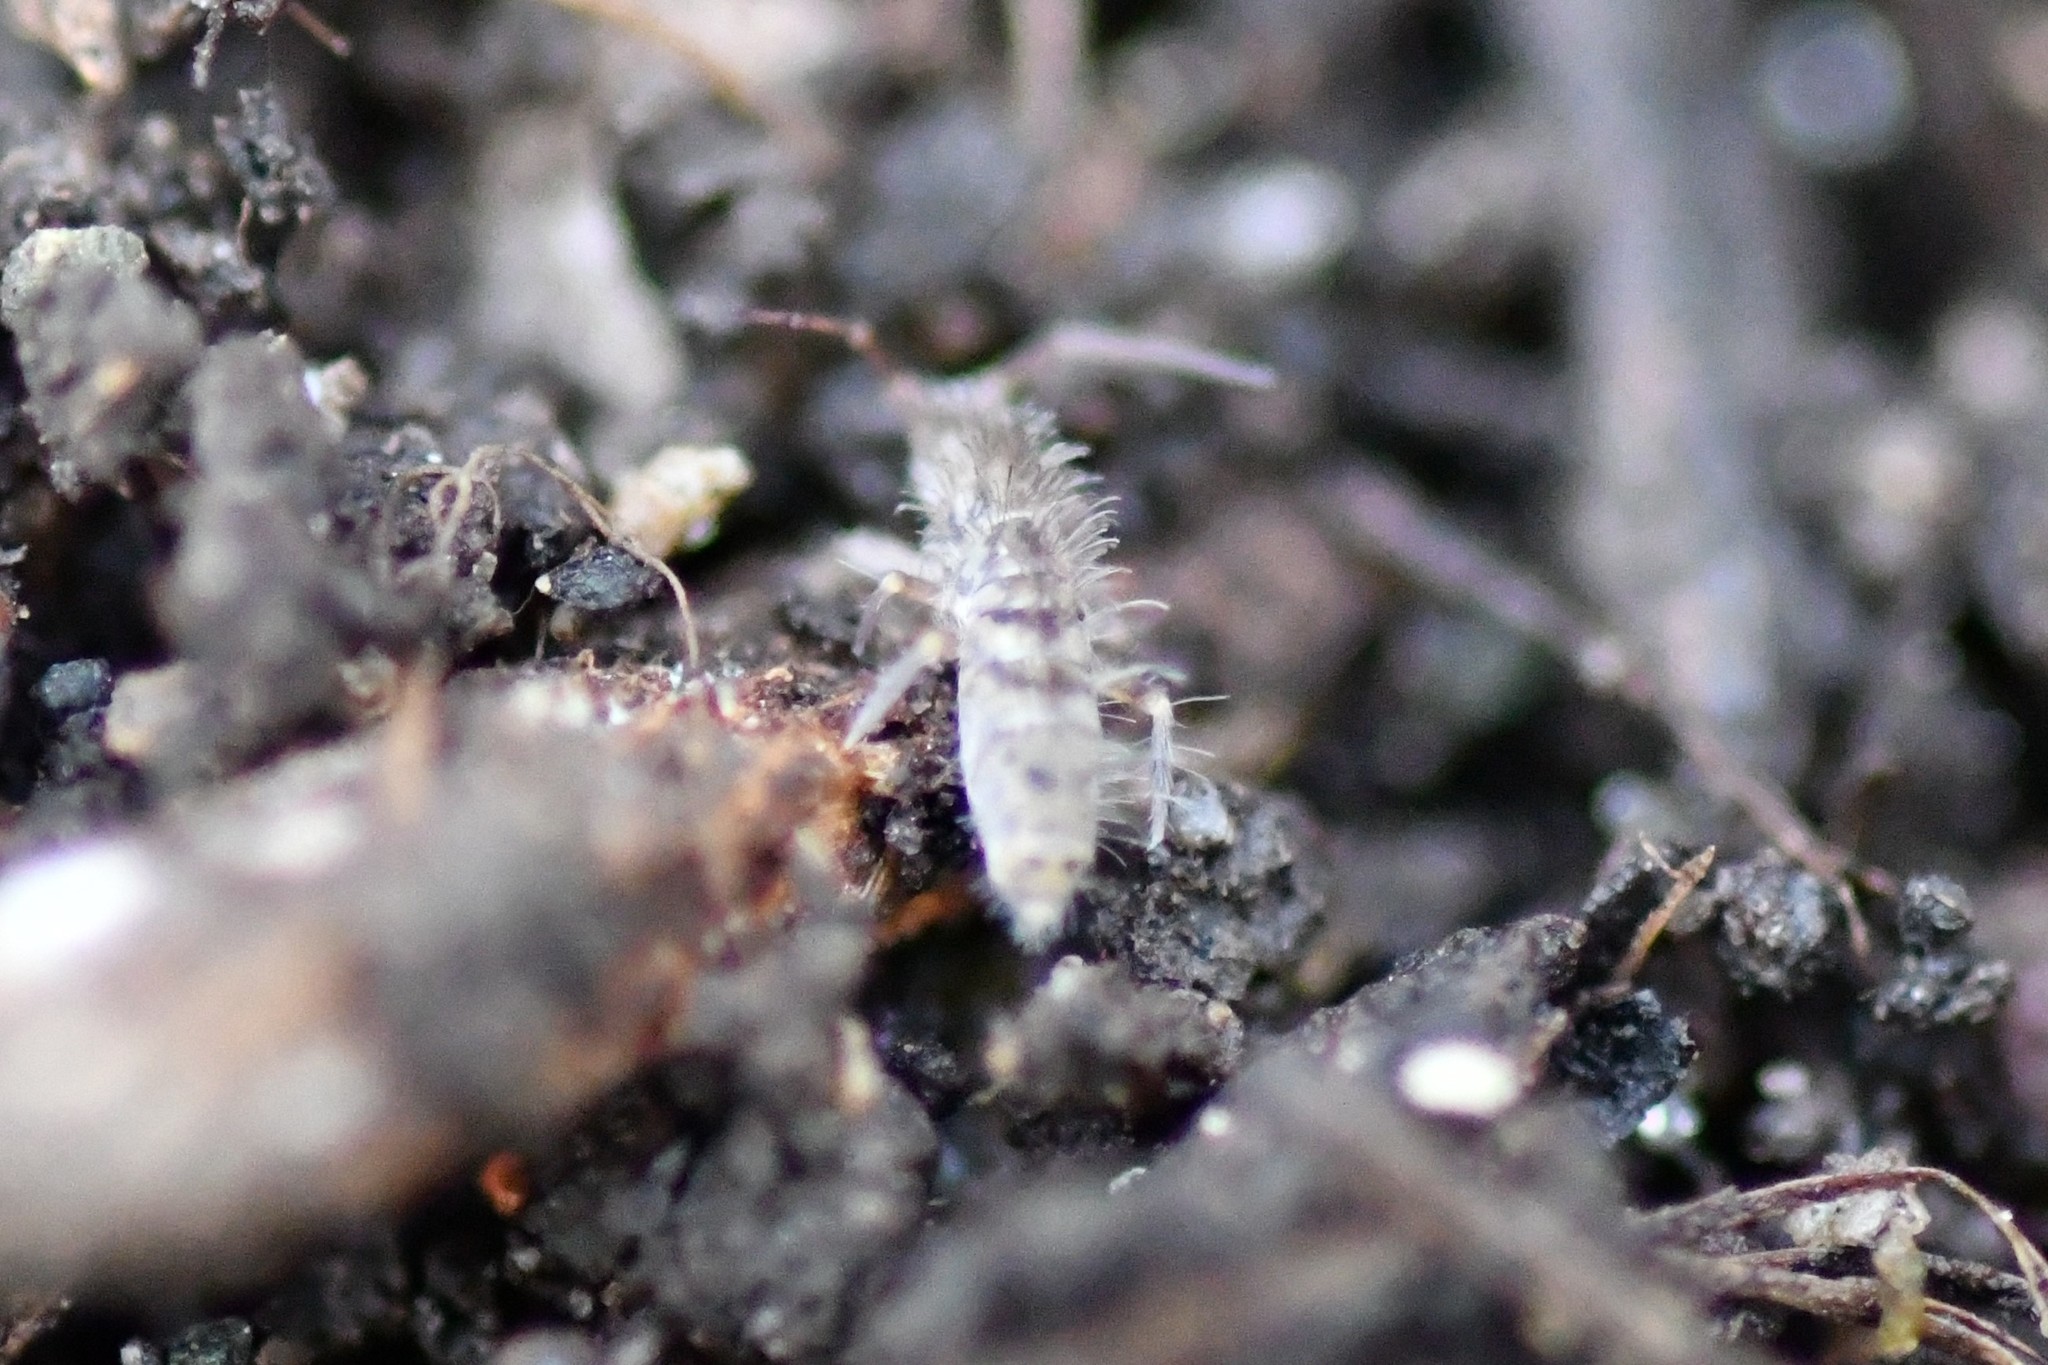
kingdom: Animalia
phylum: Arthropoda
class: Collembola
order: Entomobryomorpha
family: Orchesellidae
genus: Orchesella
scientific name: Orchesella villosa
